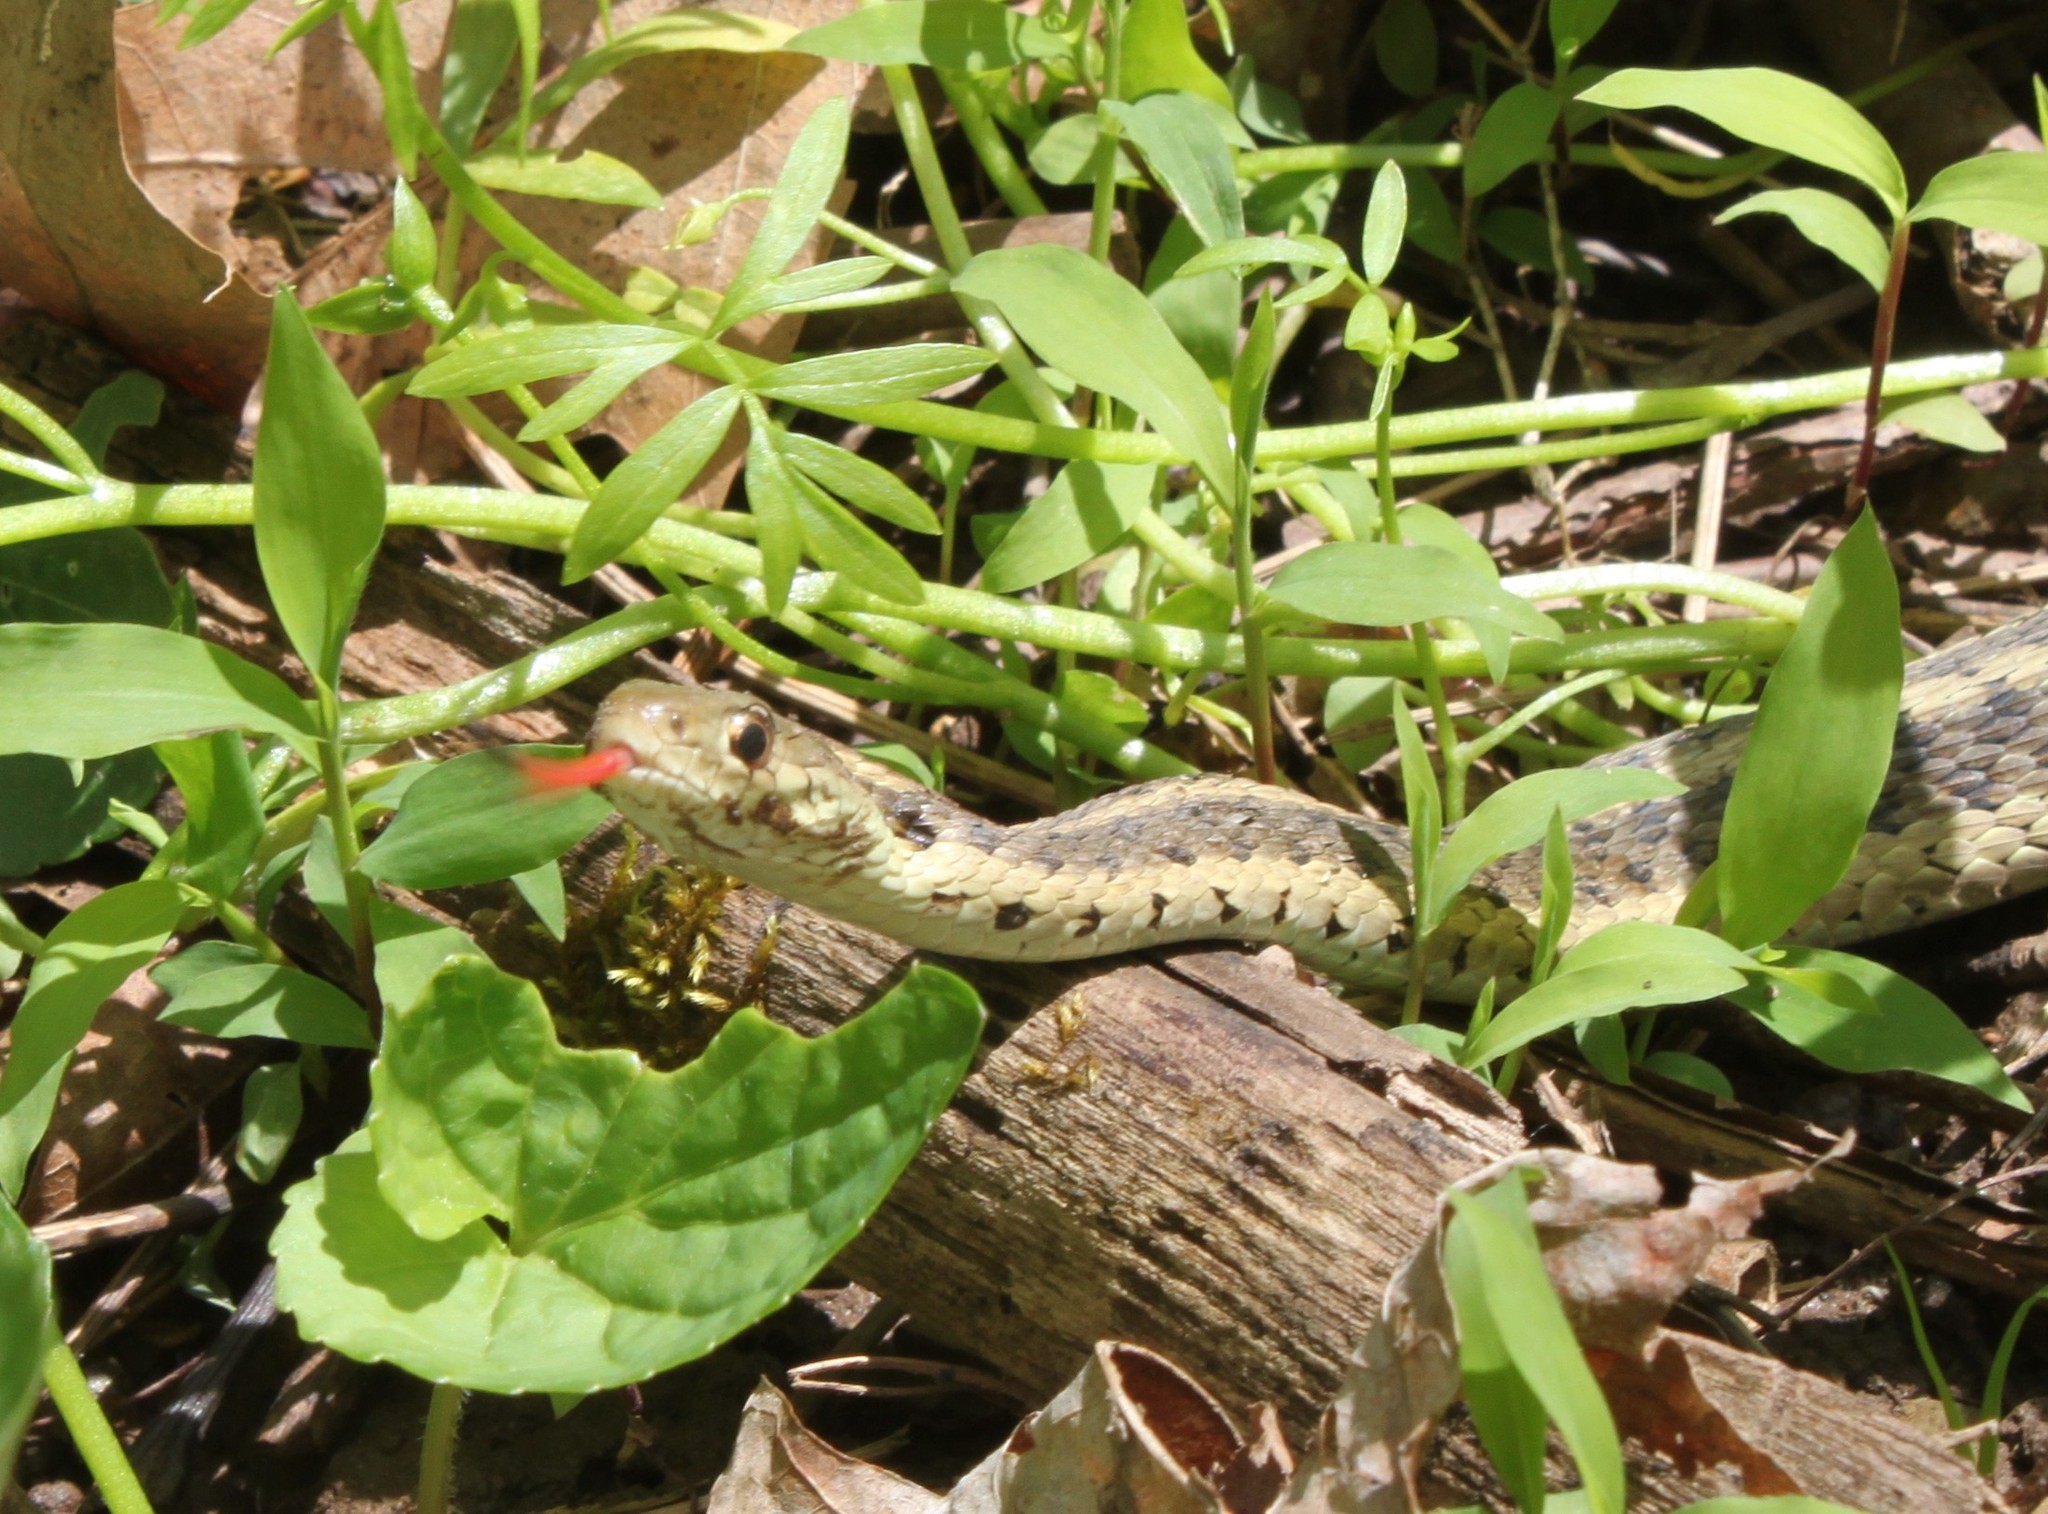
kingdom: Animalia
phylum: Chordata
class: Squamata
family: Colubridae
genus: Thamnophis
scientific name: Thamnophis sirtalis
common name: Common garter snake
